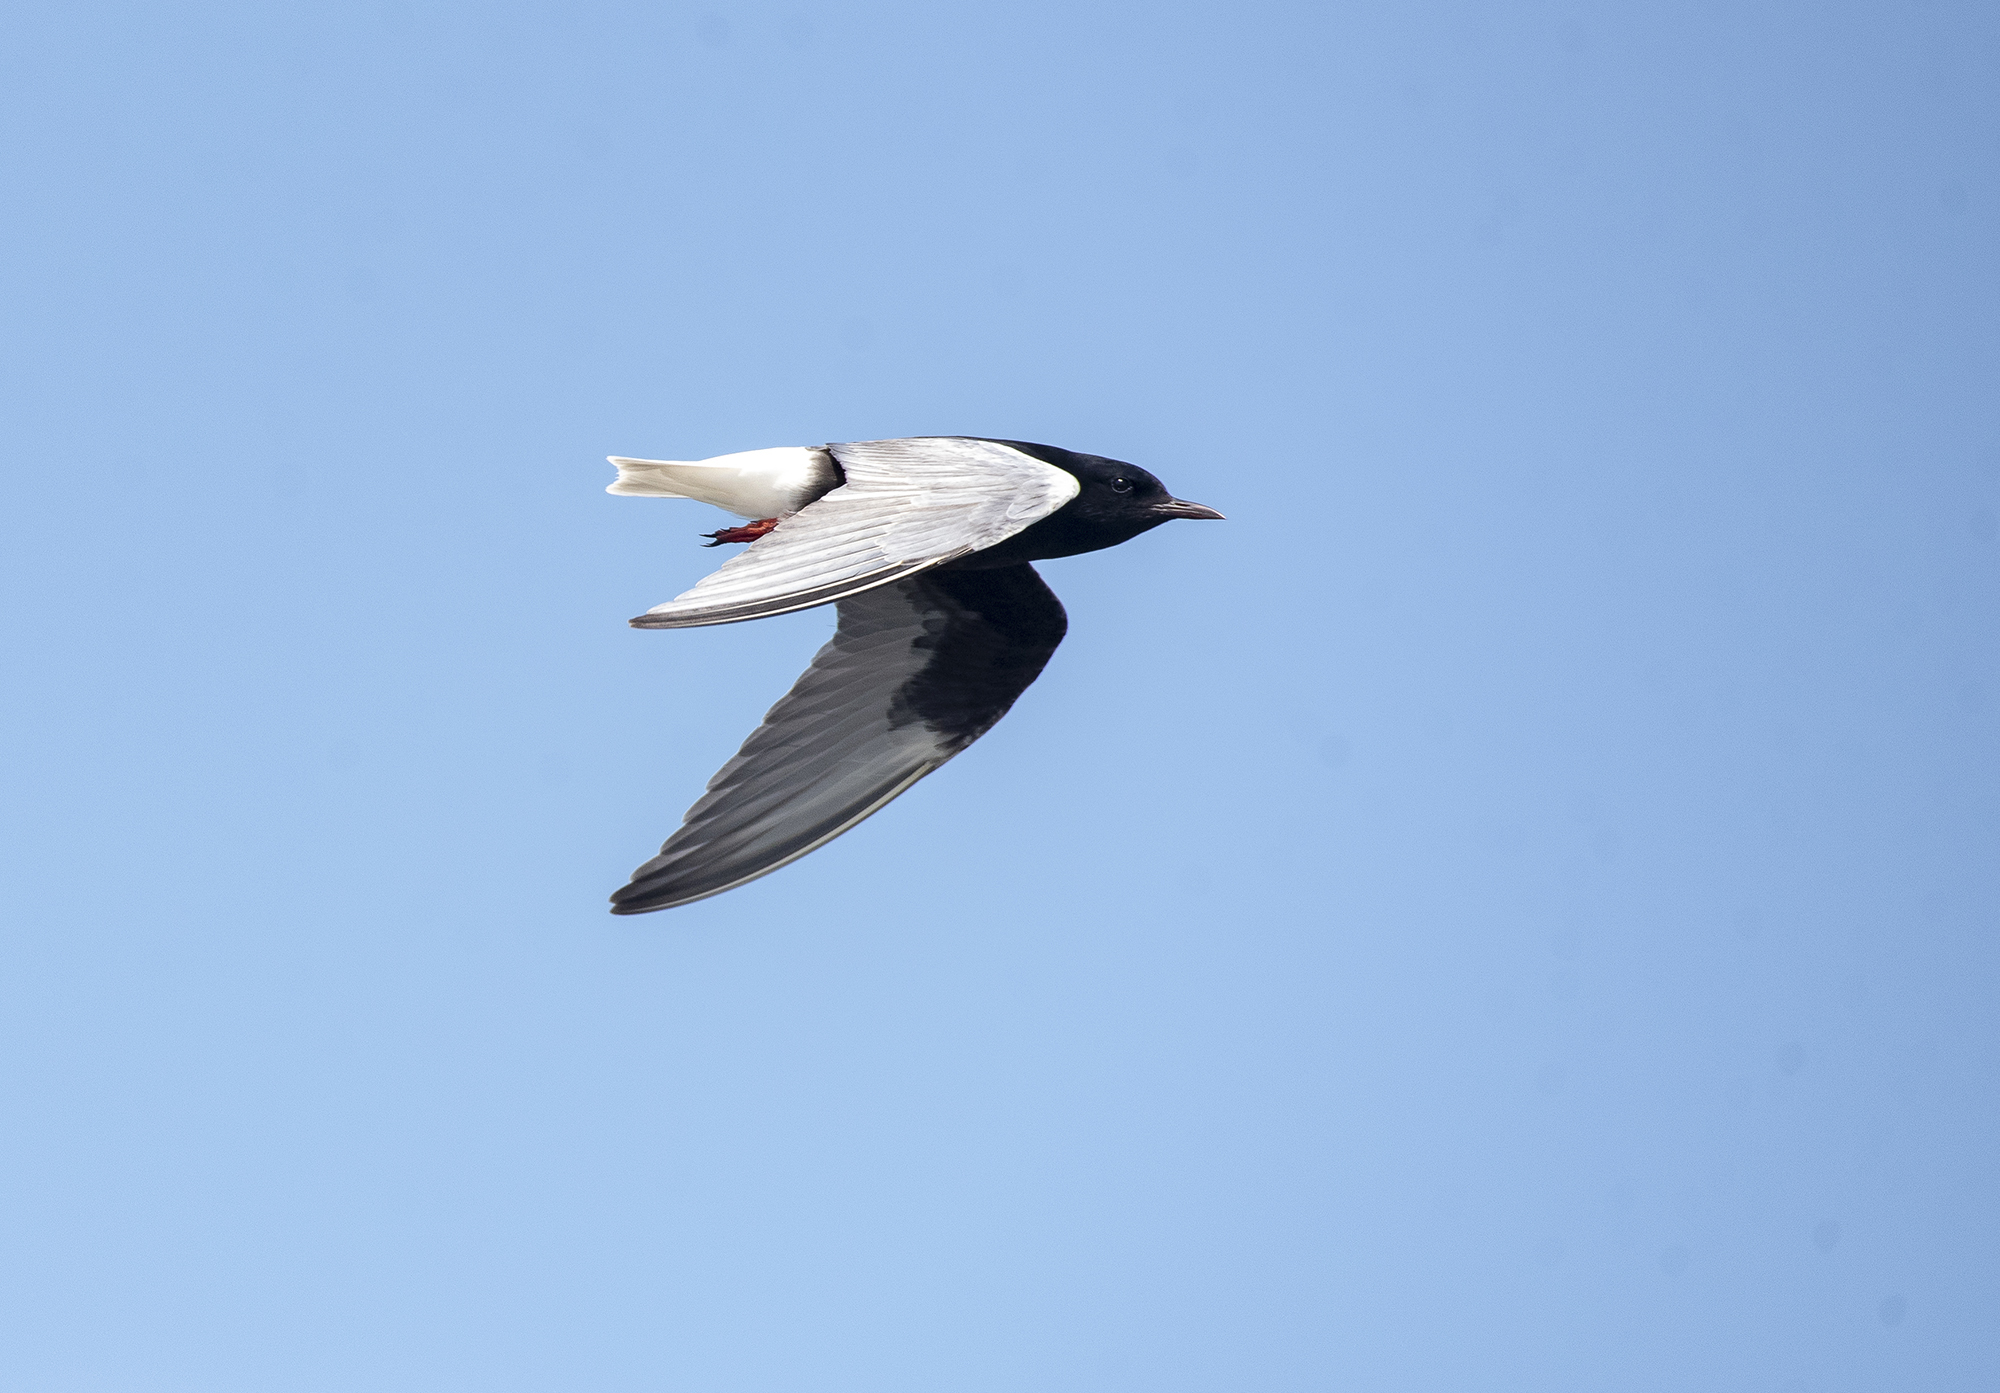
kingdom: Animalia
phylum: Chordata
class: Aves
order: Charadriiformes
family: Laridae
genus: Chlidonias
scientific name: Chlidonias leucopterus
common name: White-winged tern
